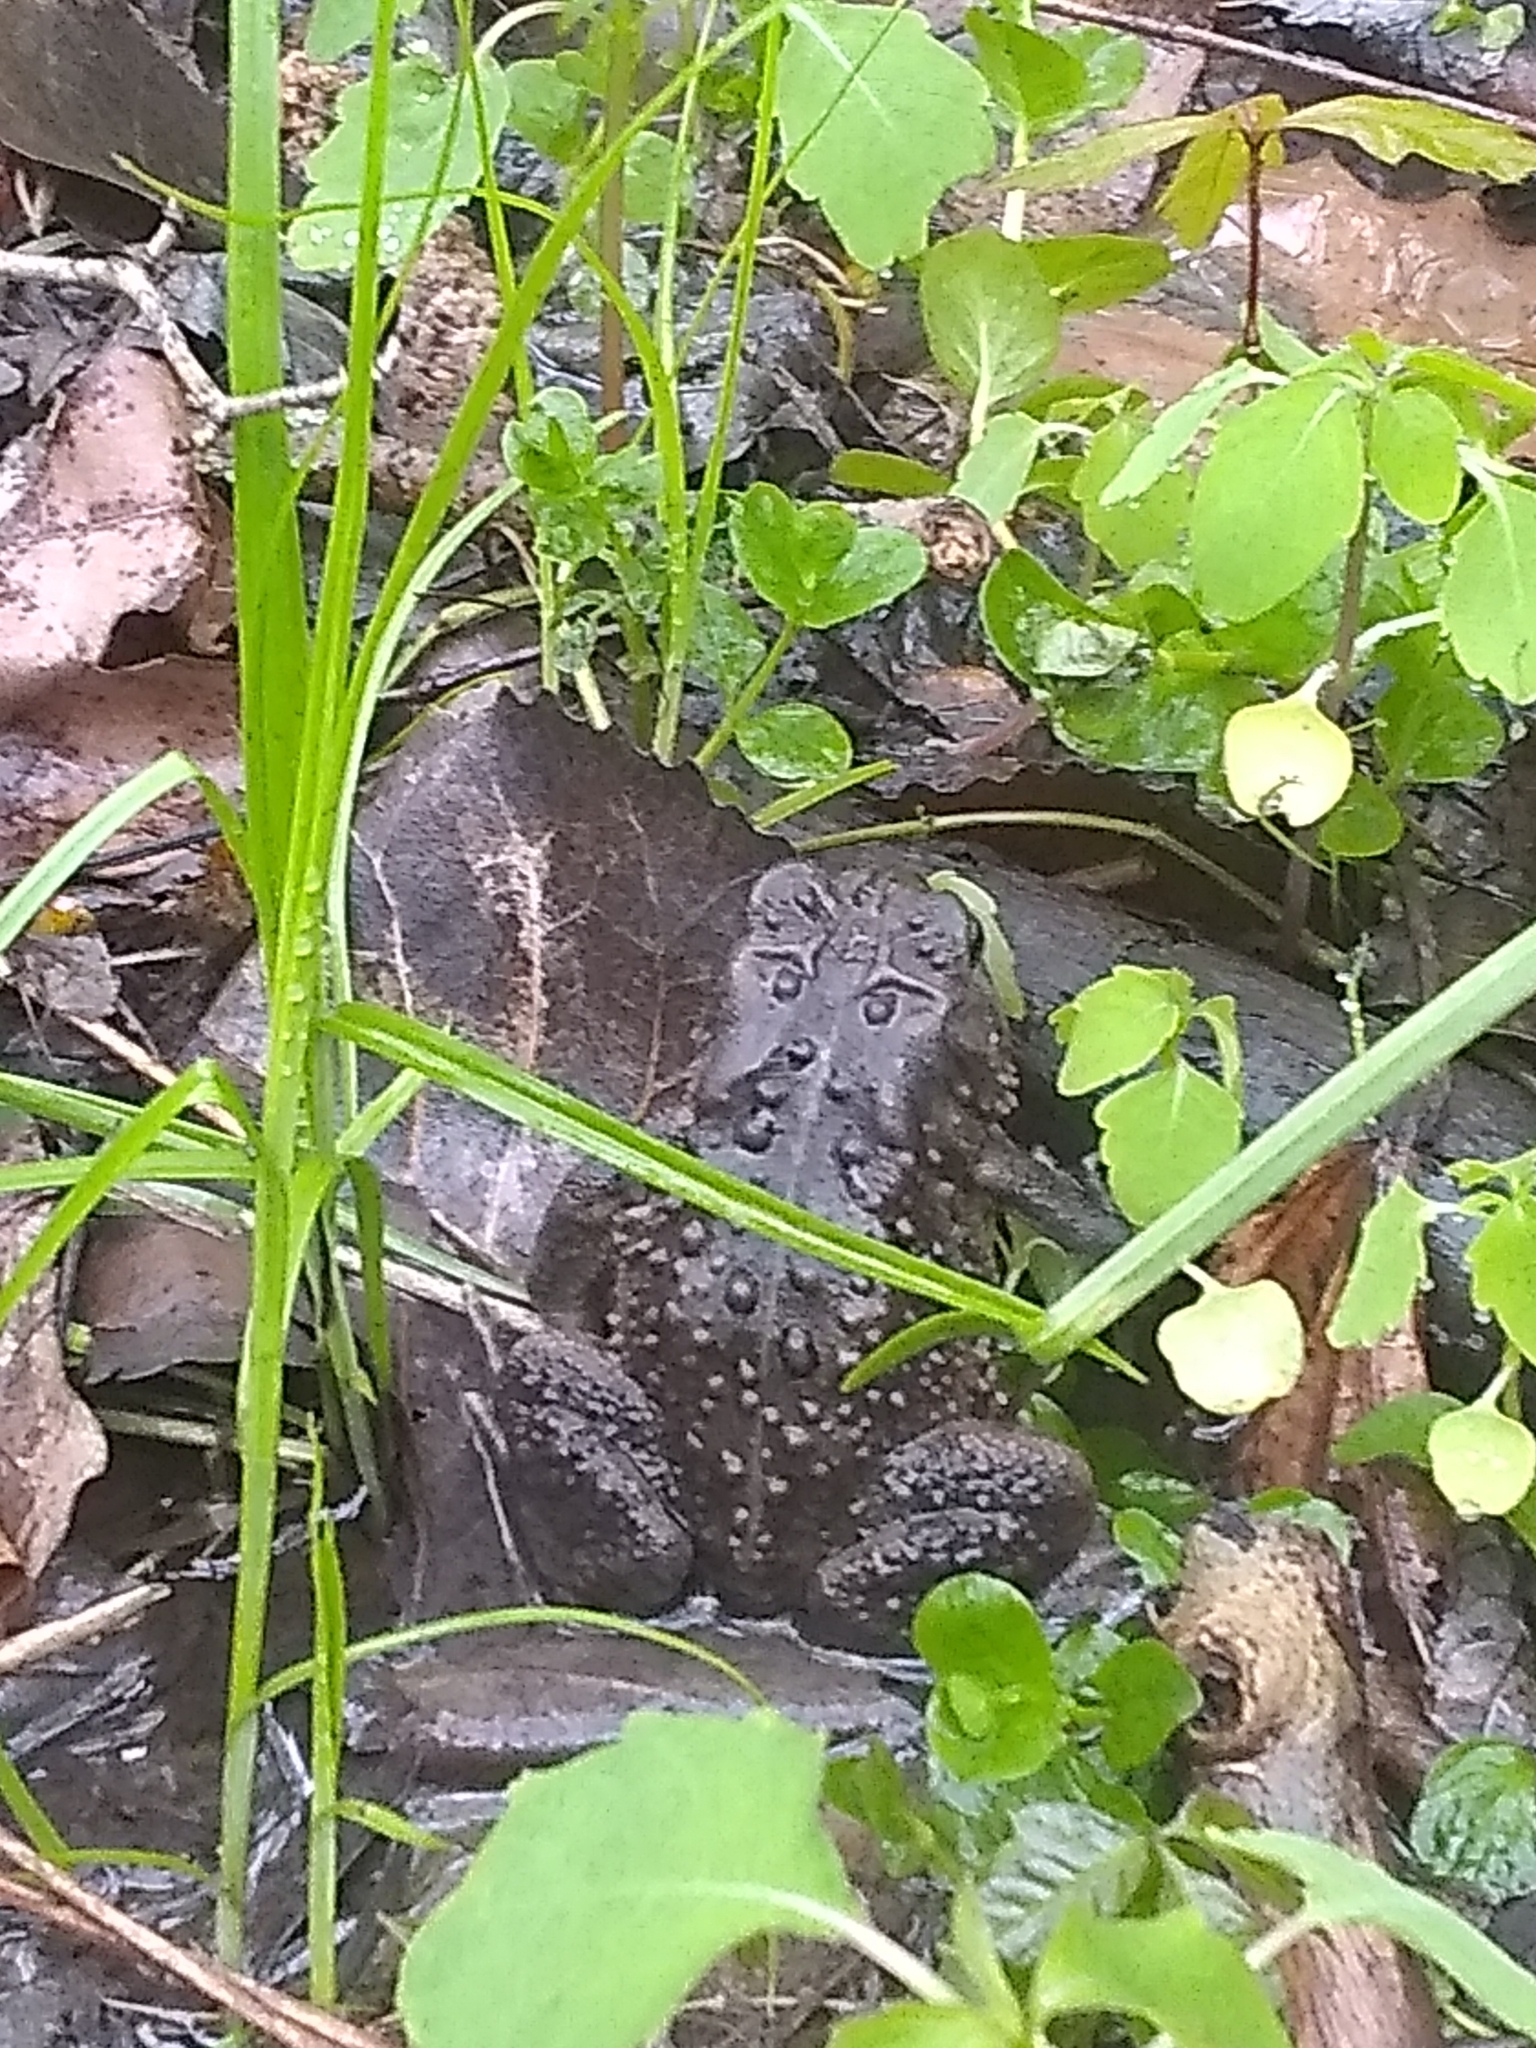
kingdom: Animalia
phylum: Chordata
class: Amphibia
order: Anura
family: Bufonidae
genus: Anaxyrus
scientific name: Anaxyrus americanus
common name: American toad
